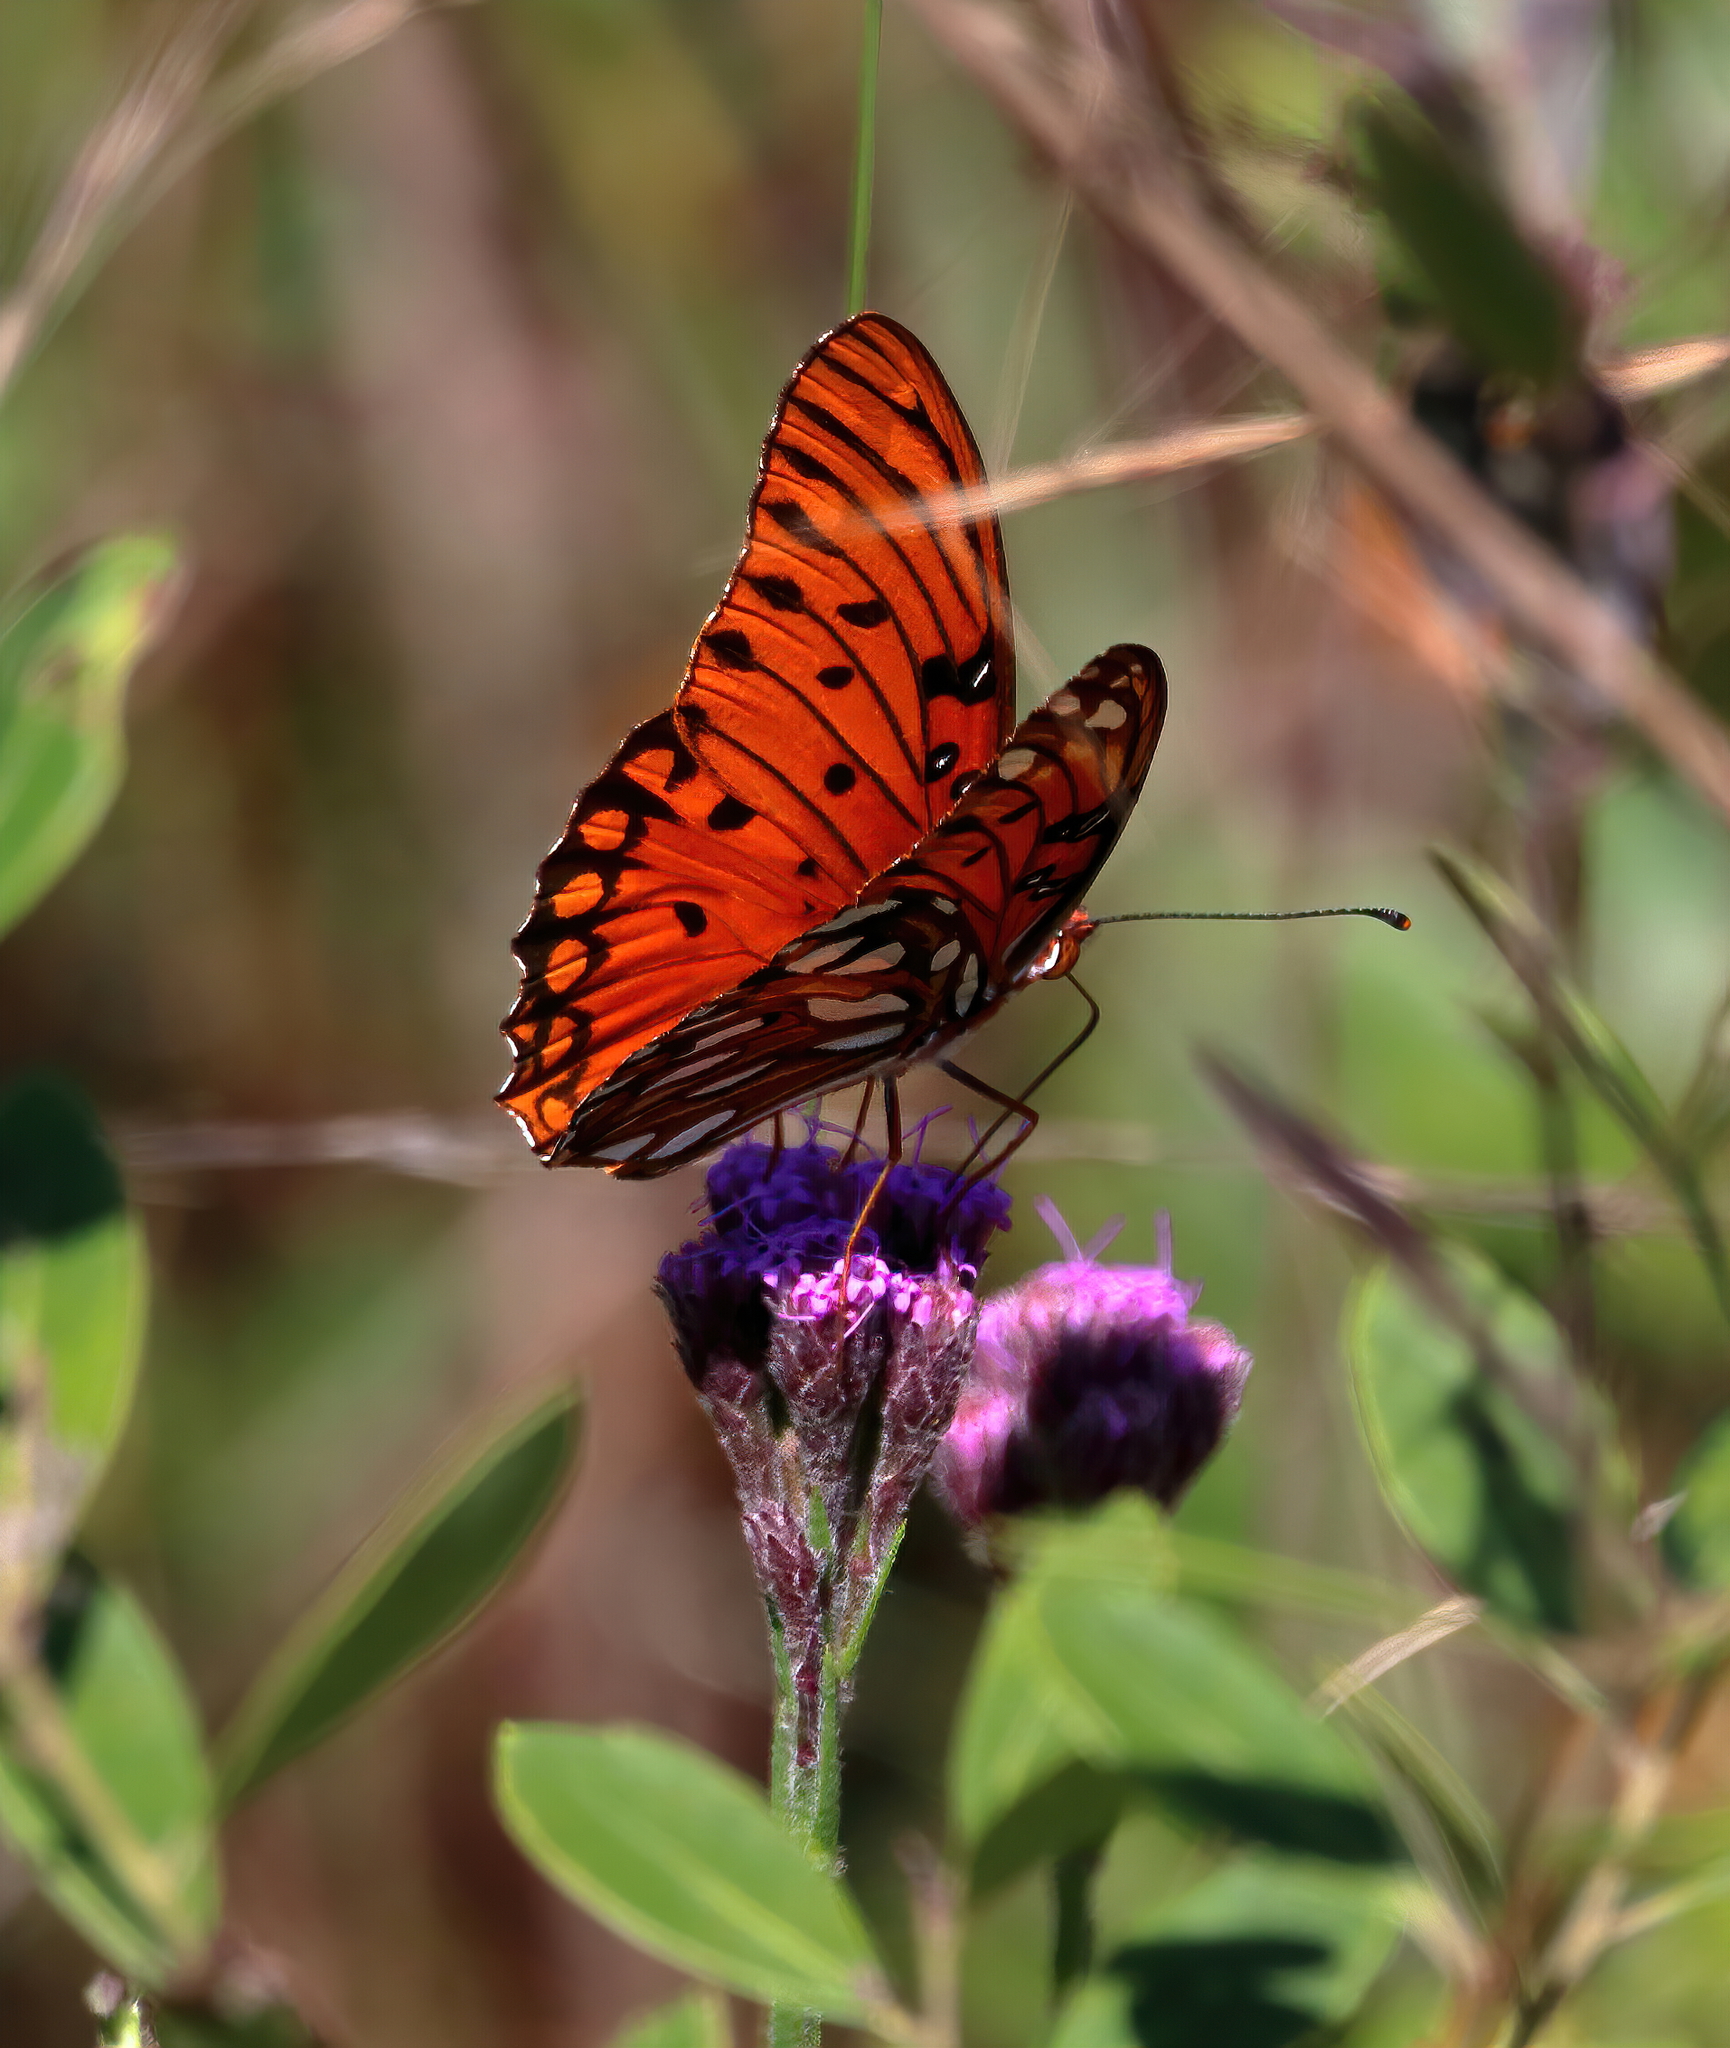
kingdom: Animalia
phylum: Arthropoda
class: Insecta
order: Lepidoptera
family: Nymphalidae
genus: Dione
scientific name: Dione vanillae
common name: Gulf fritillary
